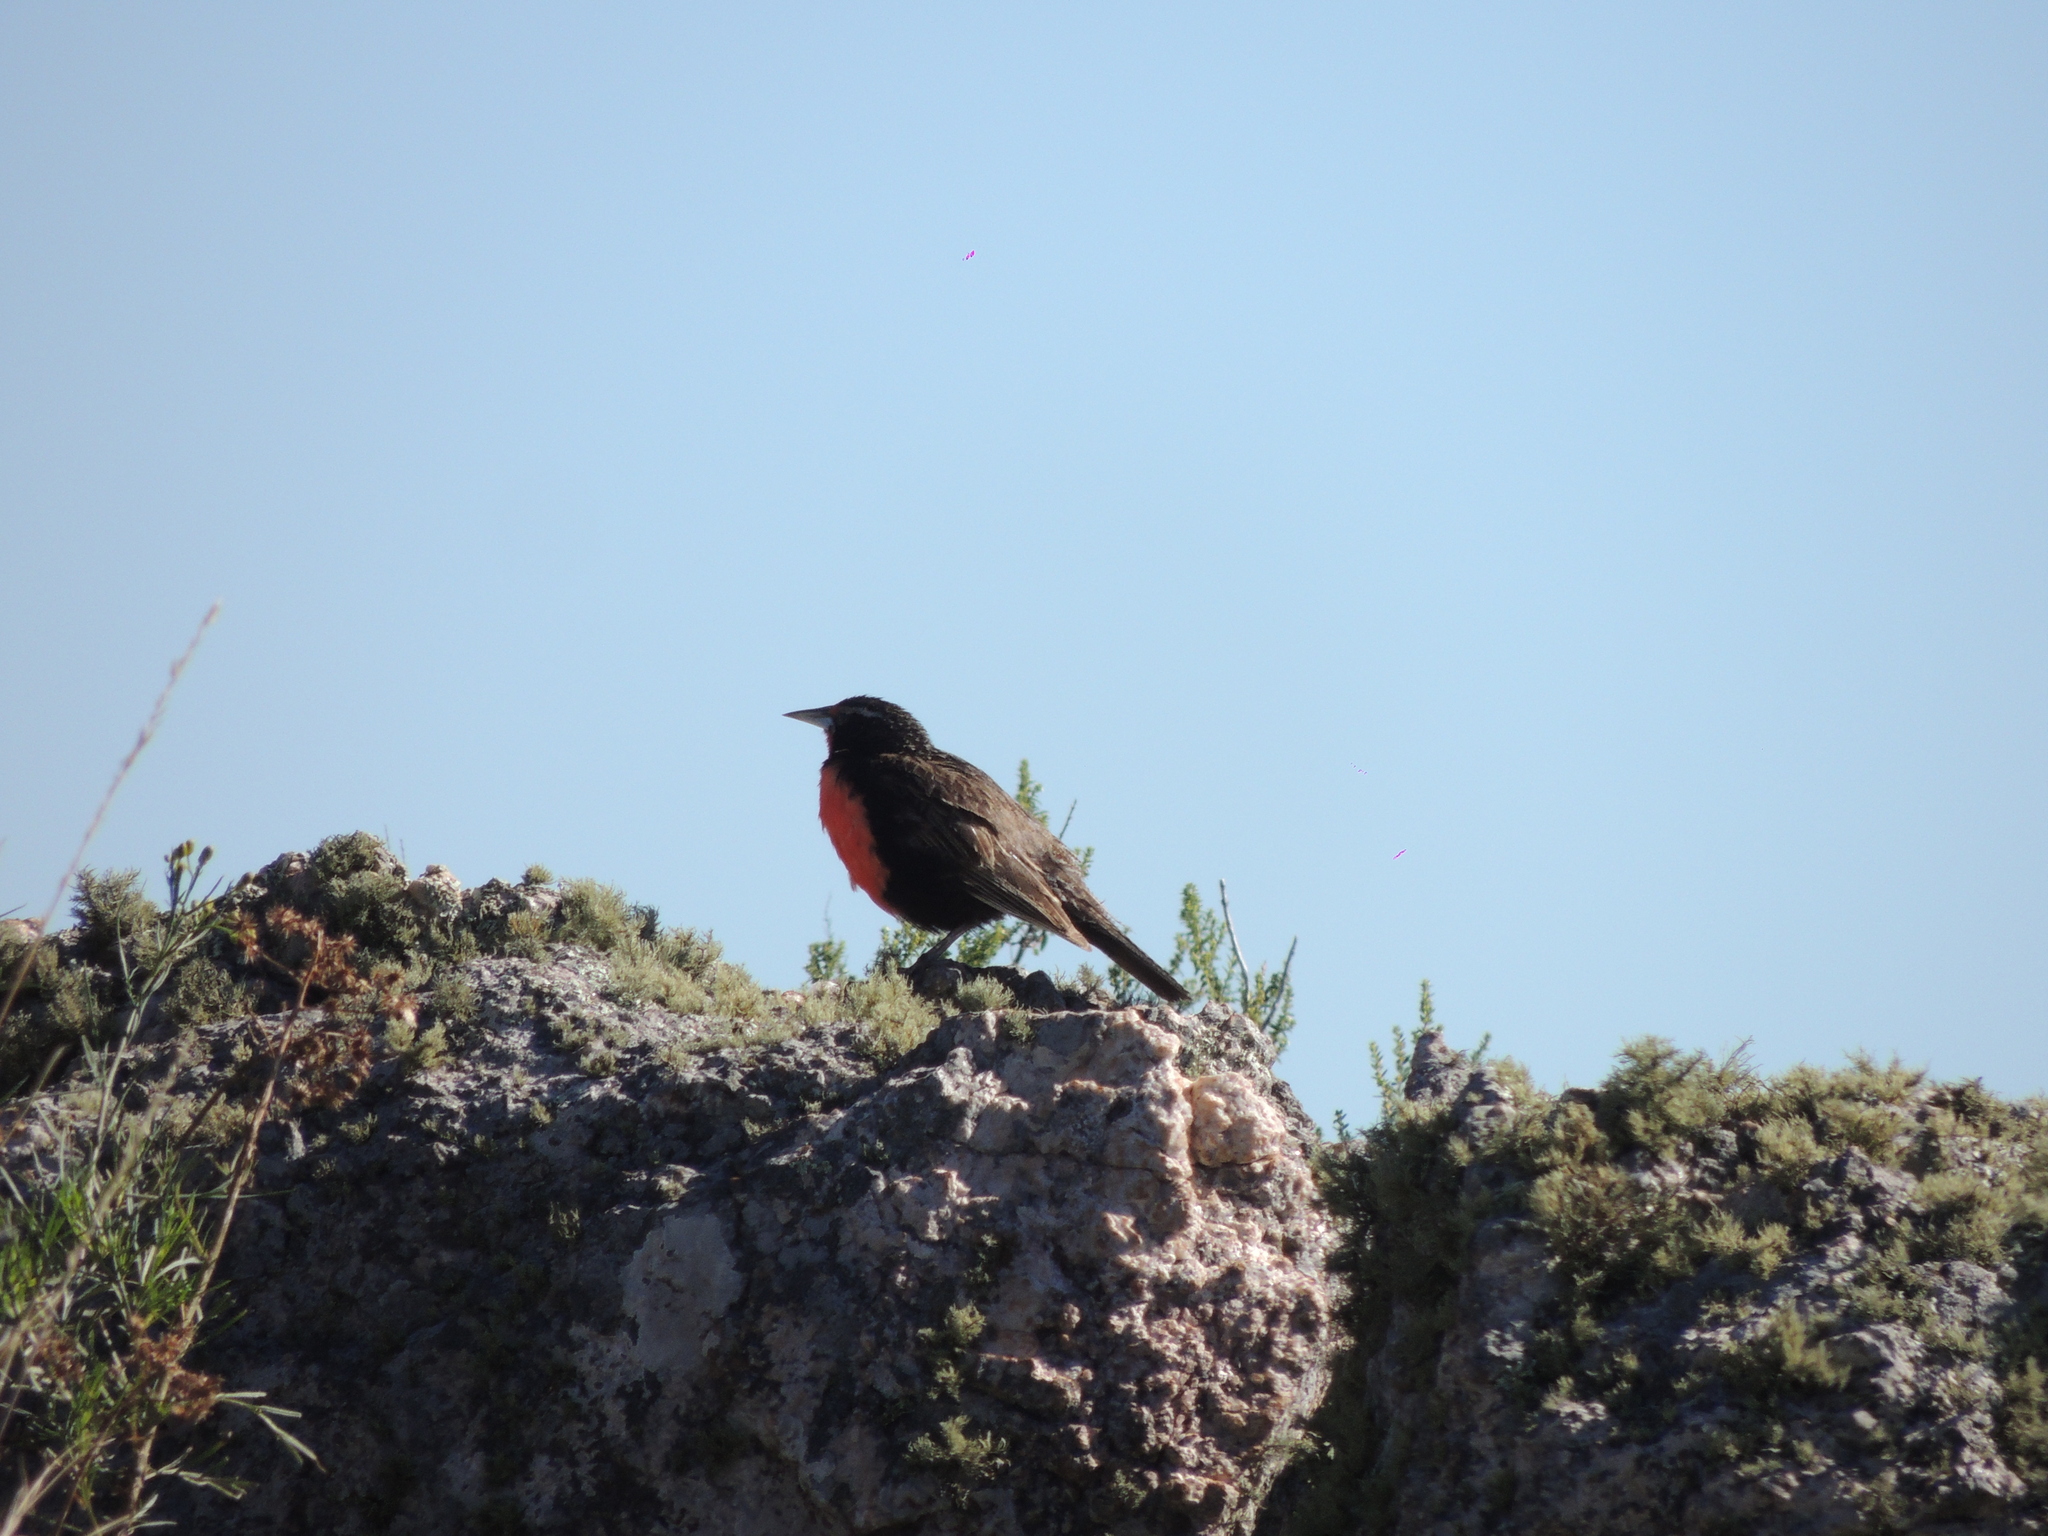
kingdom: Animalia
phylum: Chordata
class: Aves
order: Passeriformes
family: Icteridae
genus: Sturnella
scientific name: Sturnella loyca
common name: Long-tailed meadowlark
